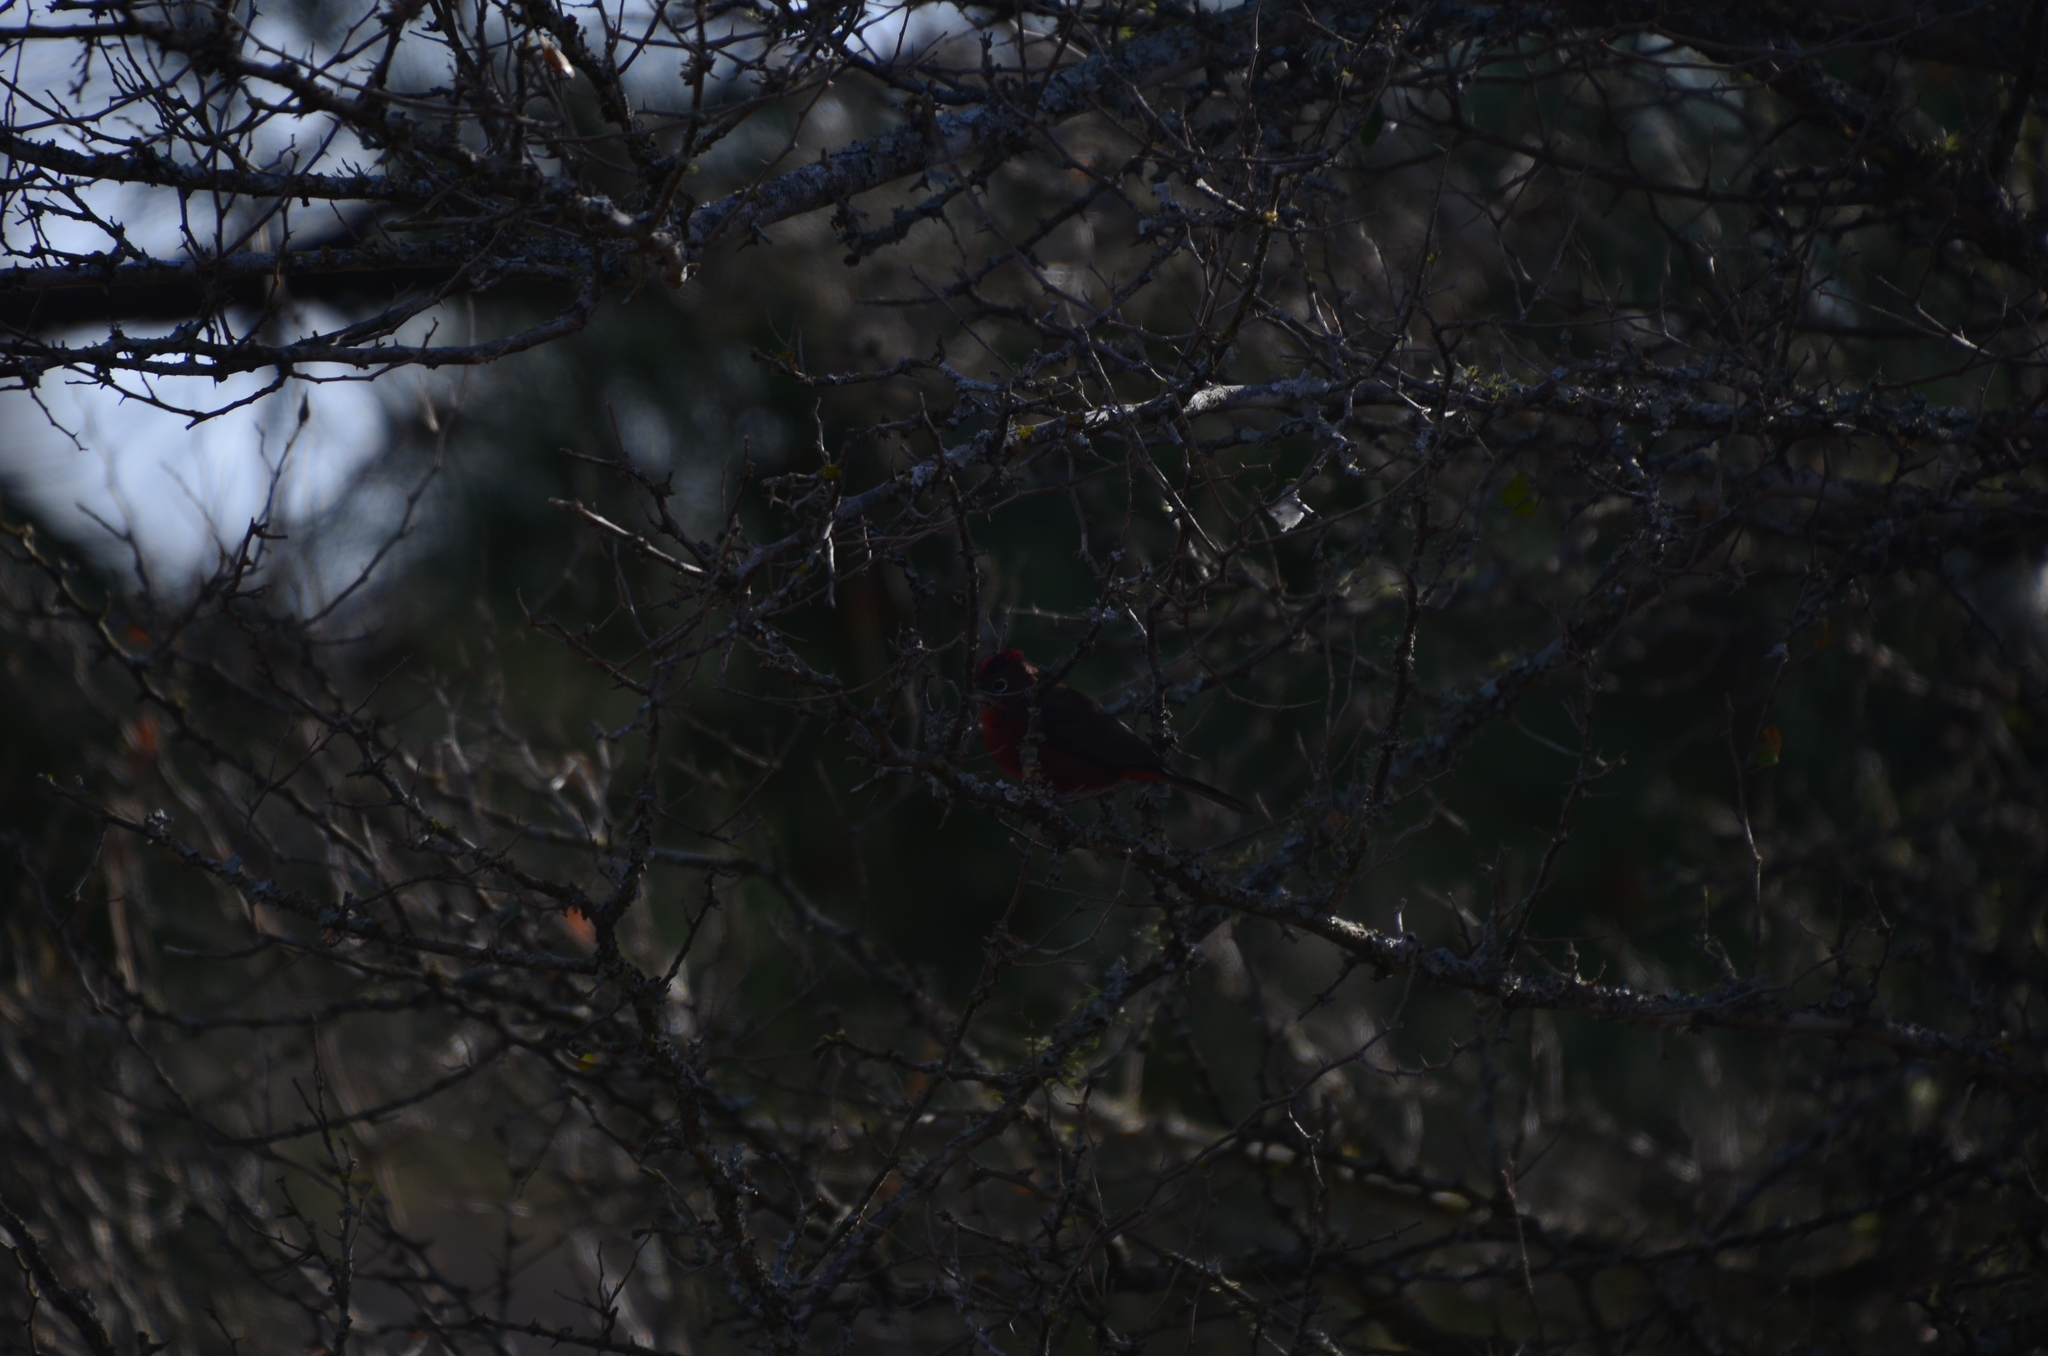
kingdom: Animalia
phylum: Chordata
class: Aves
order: Passeriformes
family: Thraupidae
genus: Coryphospingus
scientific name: Coryphospingus cucullatus
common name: Red pileated finch
